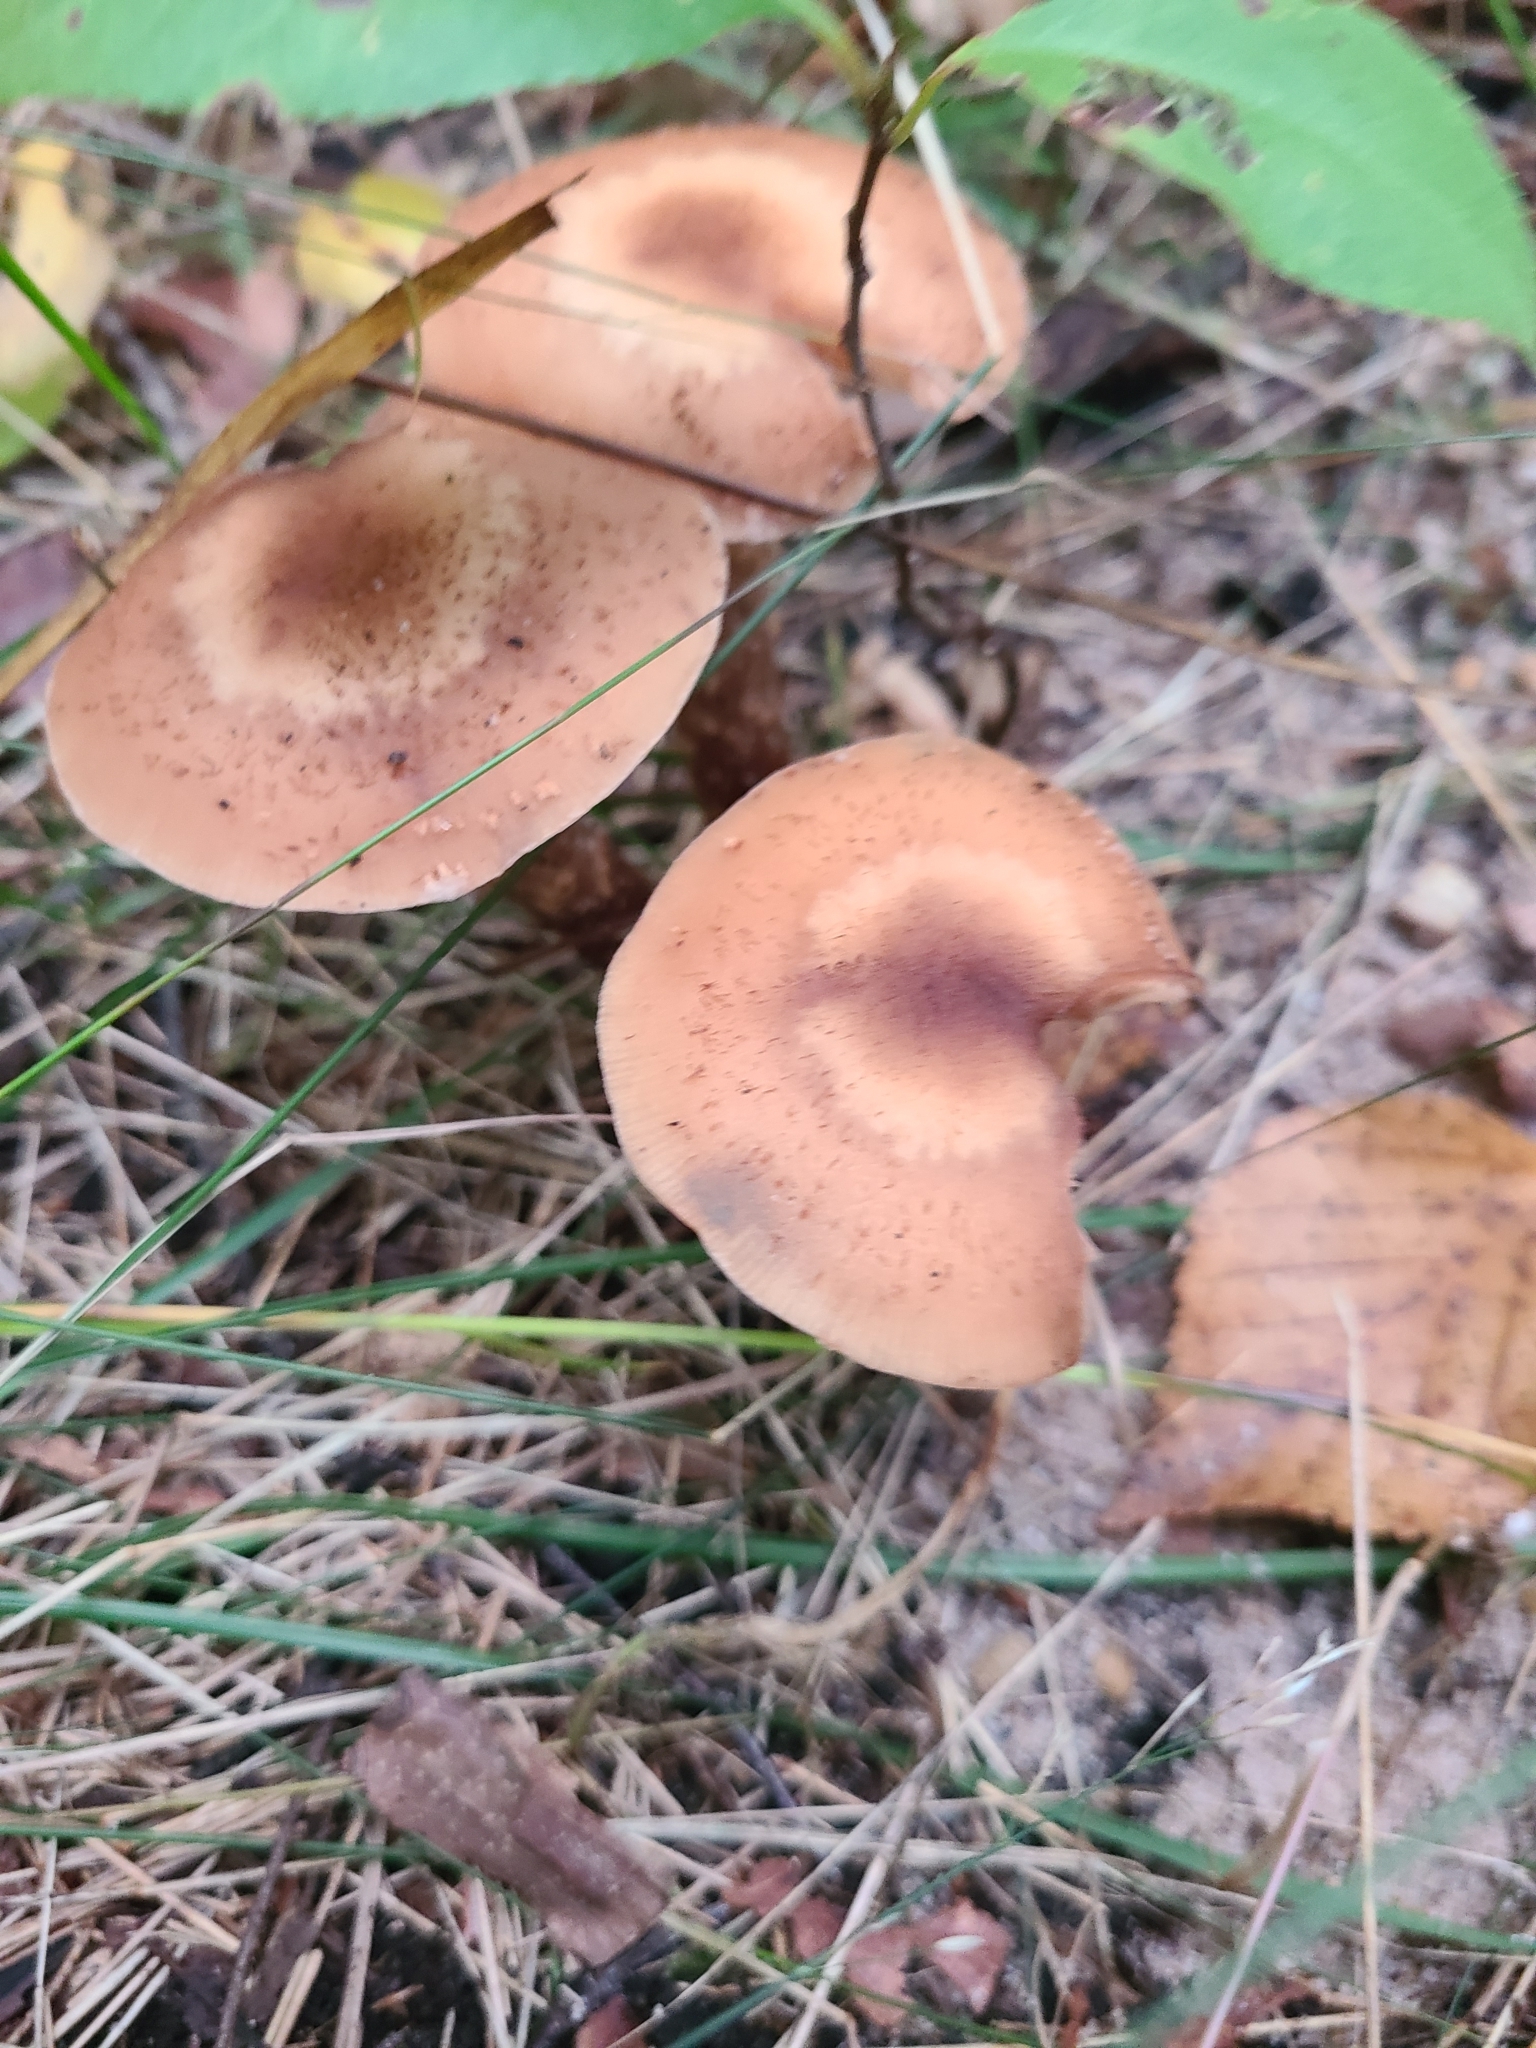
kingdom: Fungi
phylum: Basidiomycota
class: Agaricomycetes
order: Agaricales
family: Physalacriaceae
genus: Armillaria
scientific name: Armillaria mellea
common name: Honey fungus
